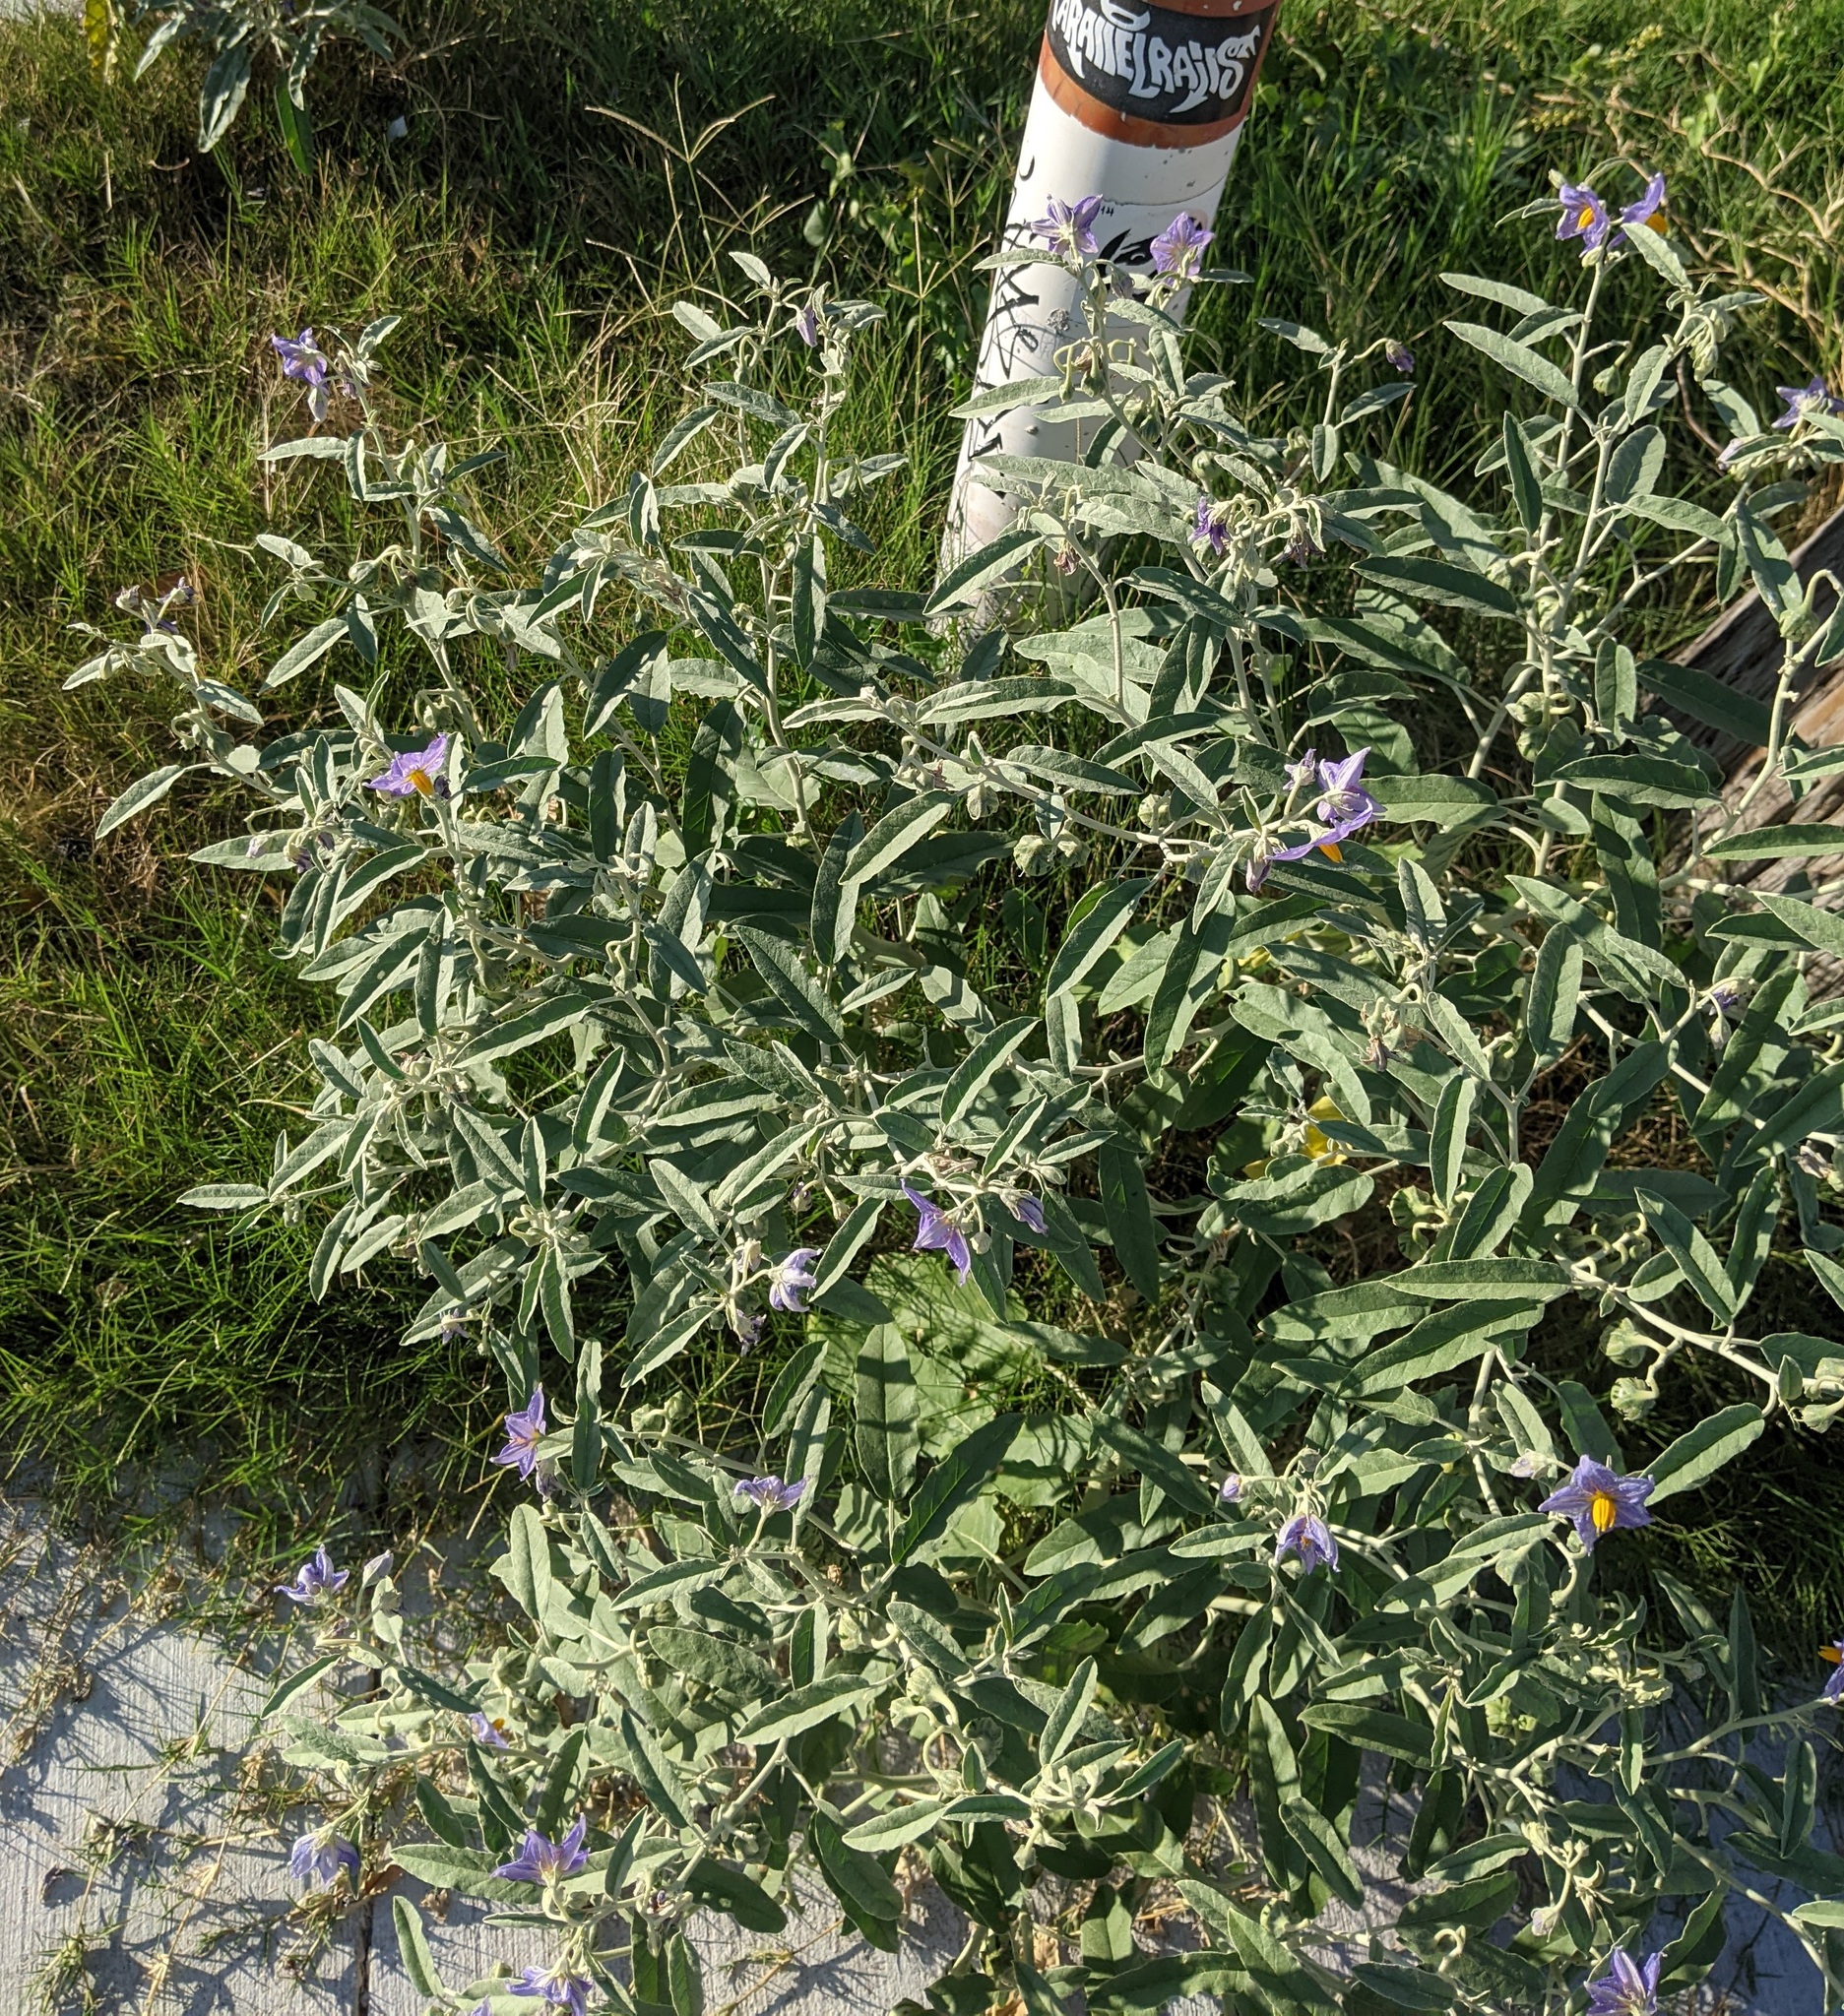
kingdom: Plantae
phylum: Tracheophyta
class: Magnoliopsida
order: Solanales
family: Solanaceae
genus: Solanum
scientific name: Solanum elaeagnifolium
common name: Silverleaf nightshade
